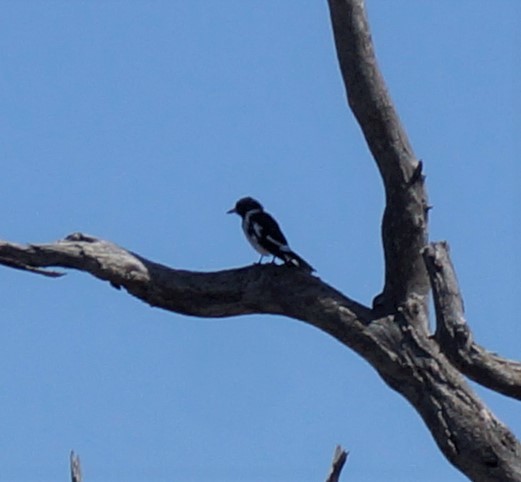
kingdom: Animalia
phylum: Chordata
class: Aves
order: Passeriformes
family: Cracticidae
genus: Cracticus
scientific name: Cracticus nigrogularis
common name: Pied butcherbird
